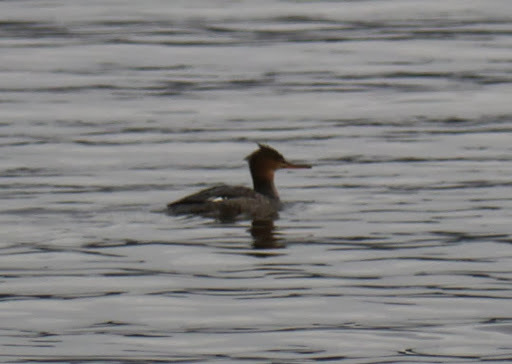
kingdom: Animalia
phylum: Chordata
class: Aves
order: Anseriformes
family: Anatidae
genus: Mergus
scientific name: Mergus serrator
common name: Red-breasted merganser
